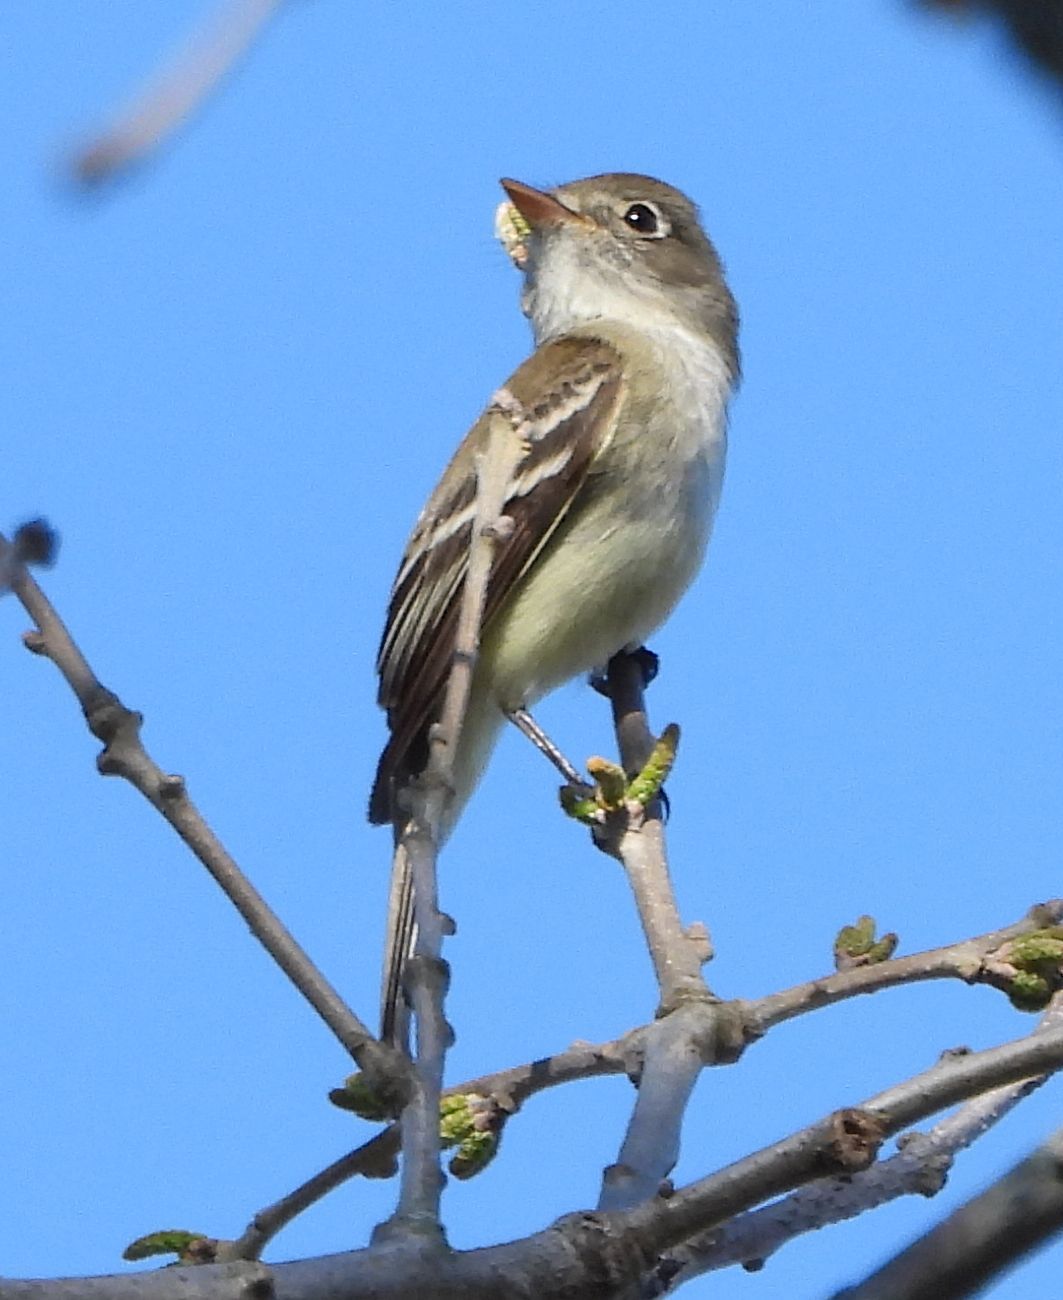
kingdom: Animalia
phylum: Chordata
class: Aves
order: Passeriformes
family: Tyrannidae
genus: Empidonax
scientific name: Empidonax minimus
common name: Least flycatcher
